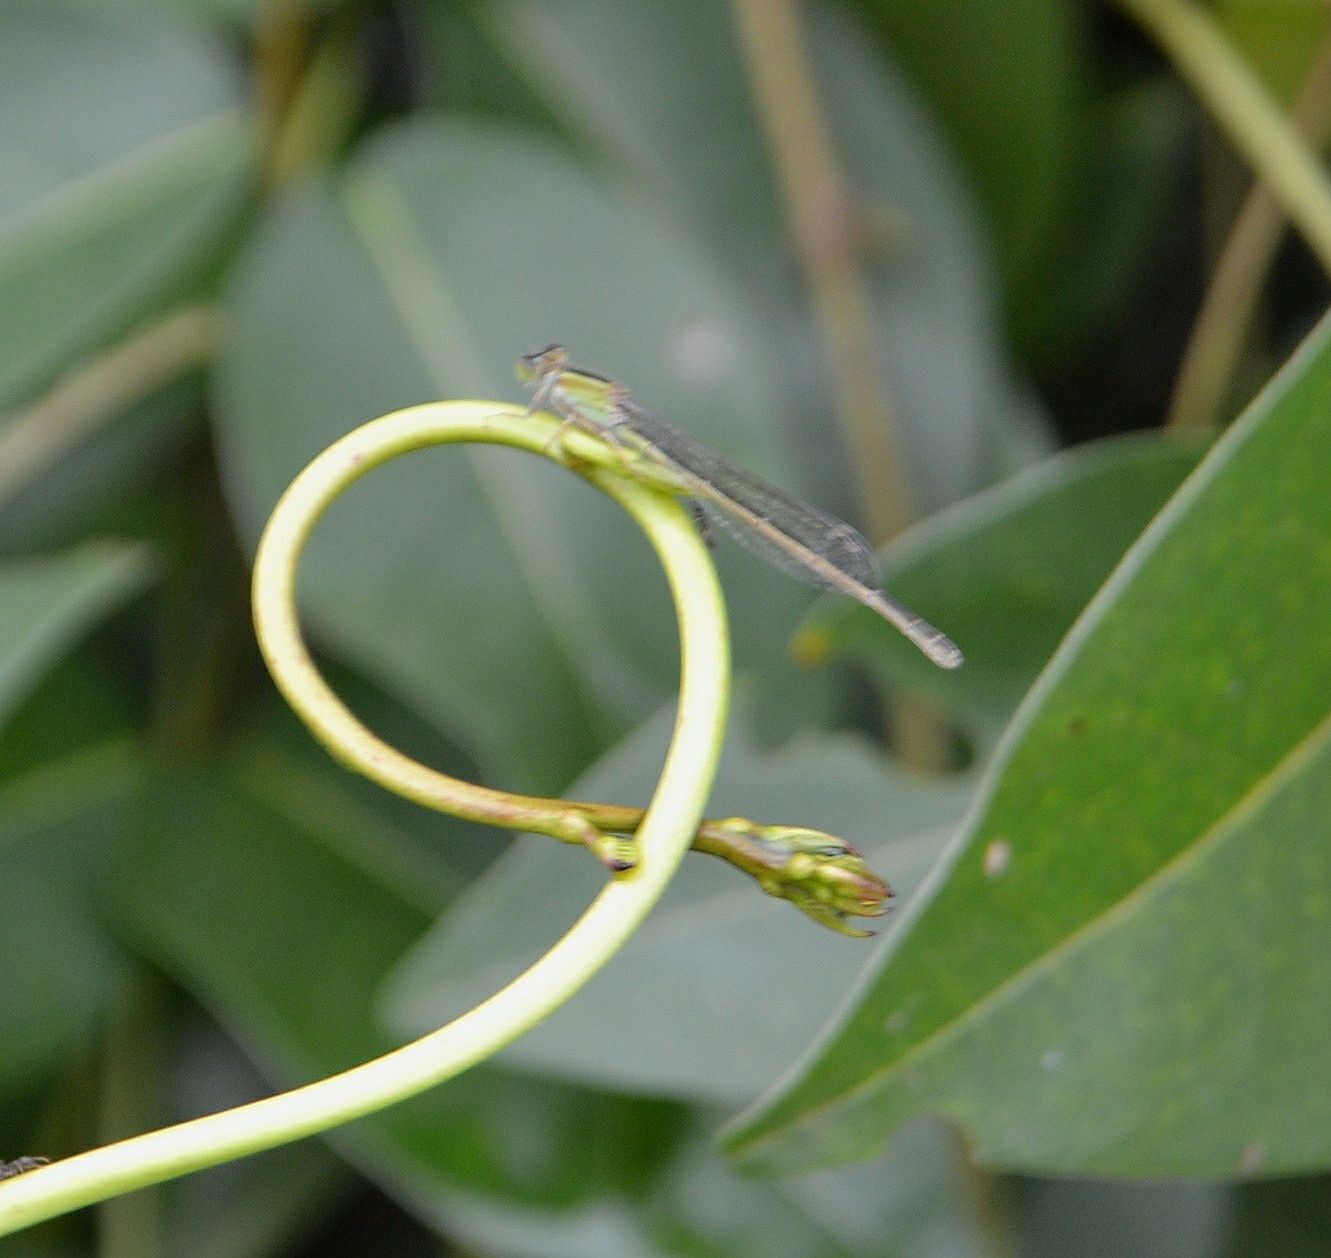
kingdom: Animalia
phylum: Arthropoda
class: Insecta
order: Odonata
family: Coenagrionidae
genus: Ischnura
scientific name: Ischnura senegalensis
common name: Tropical bluetail
